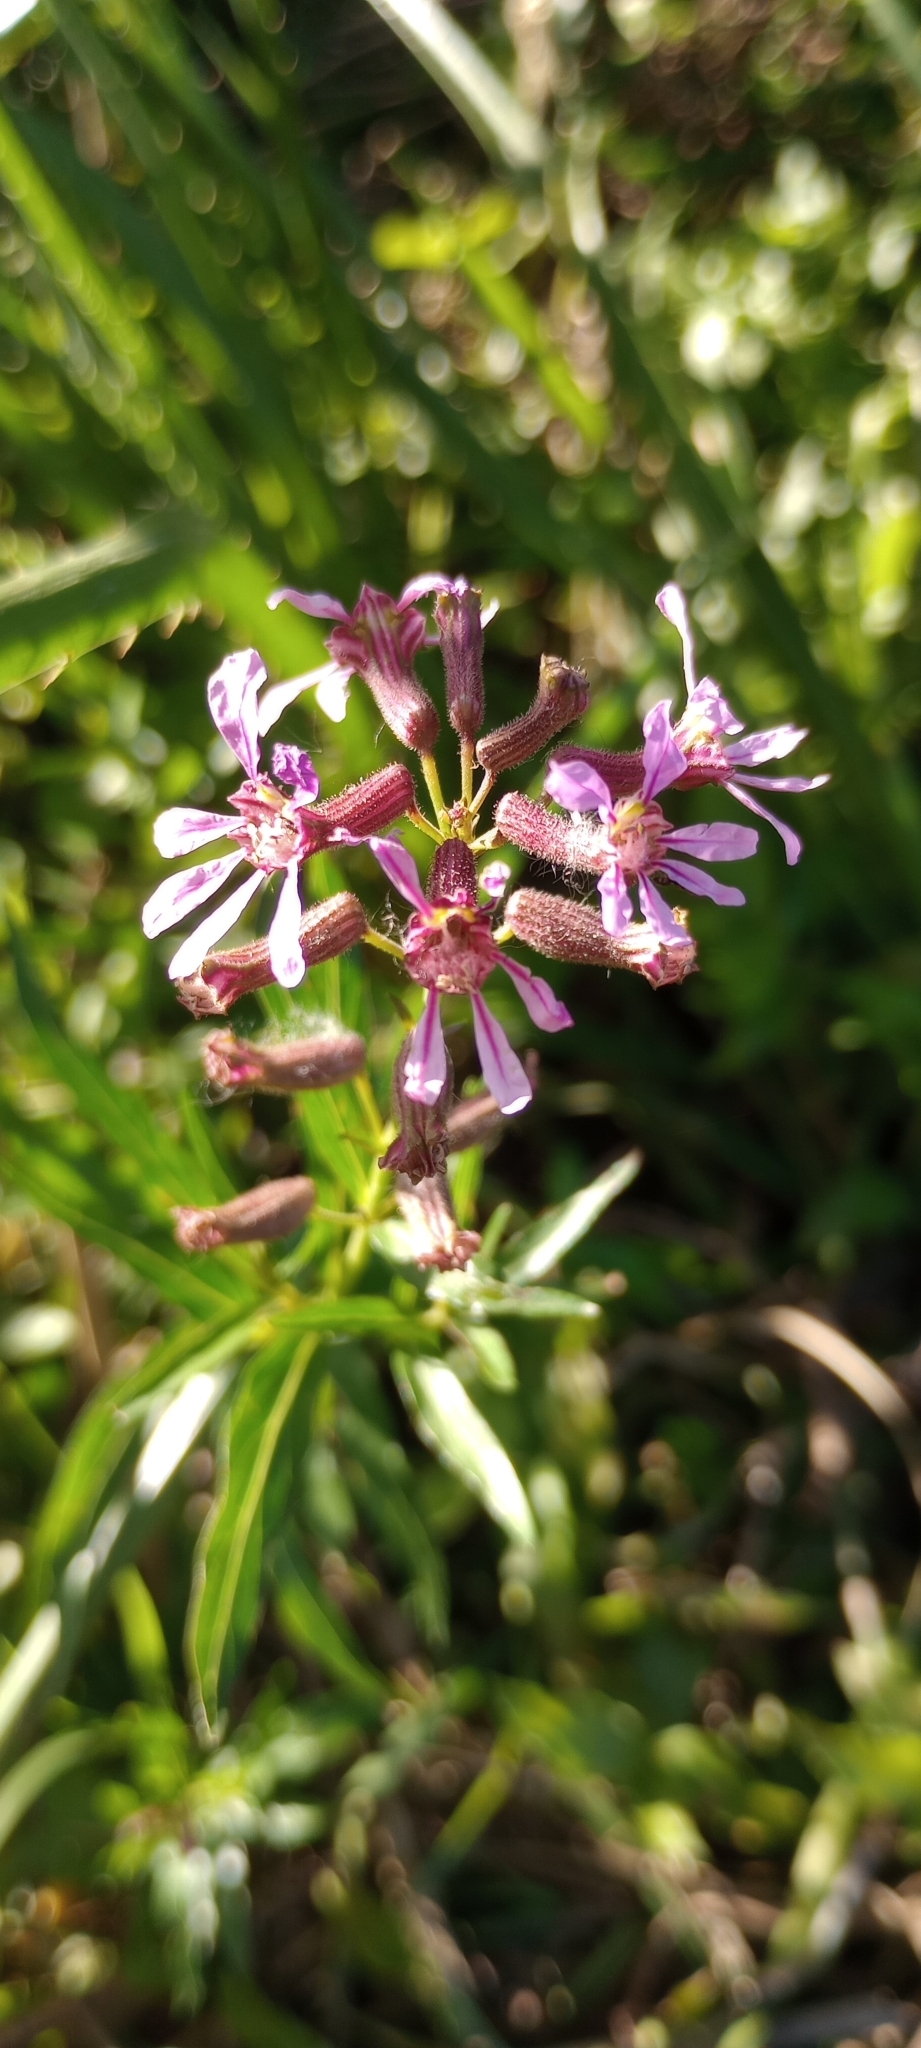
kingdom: Plantae
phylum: Tracheophyta
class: Magnoliopsida
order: Myrtales
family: Lythraceae
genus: Cuphea
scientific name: Cuphea fruticosa
